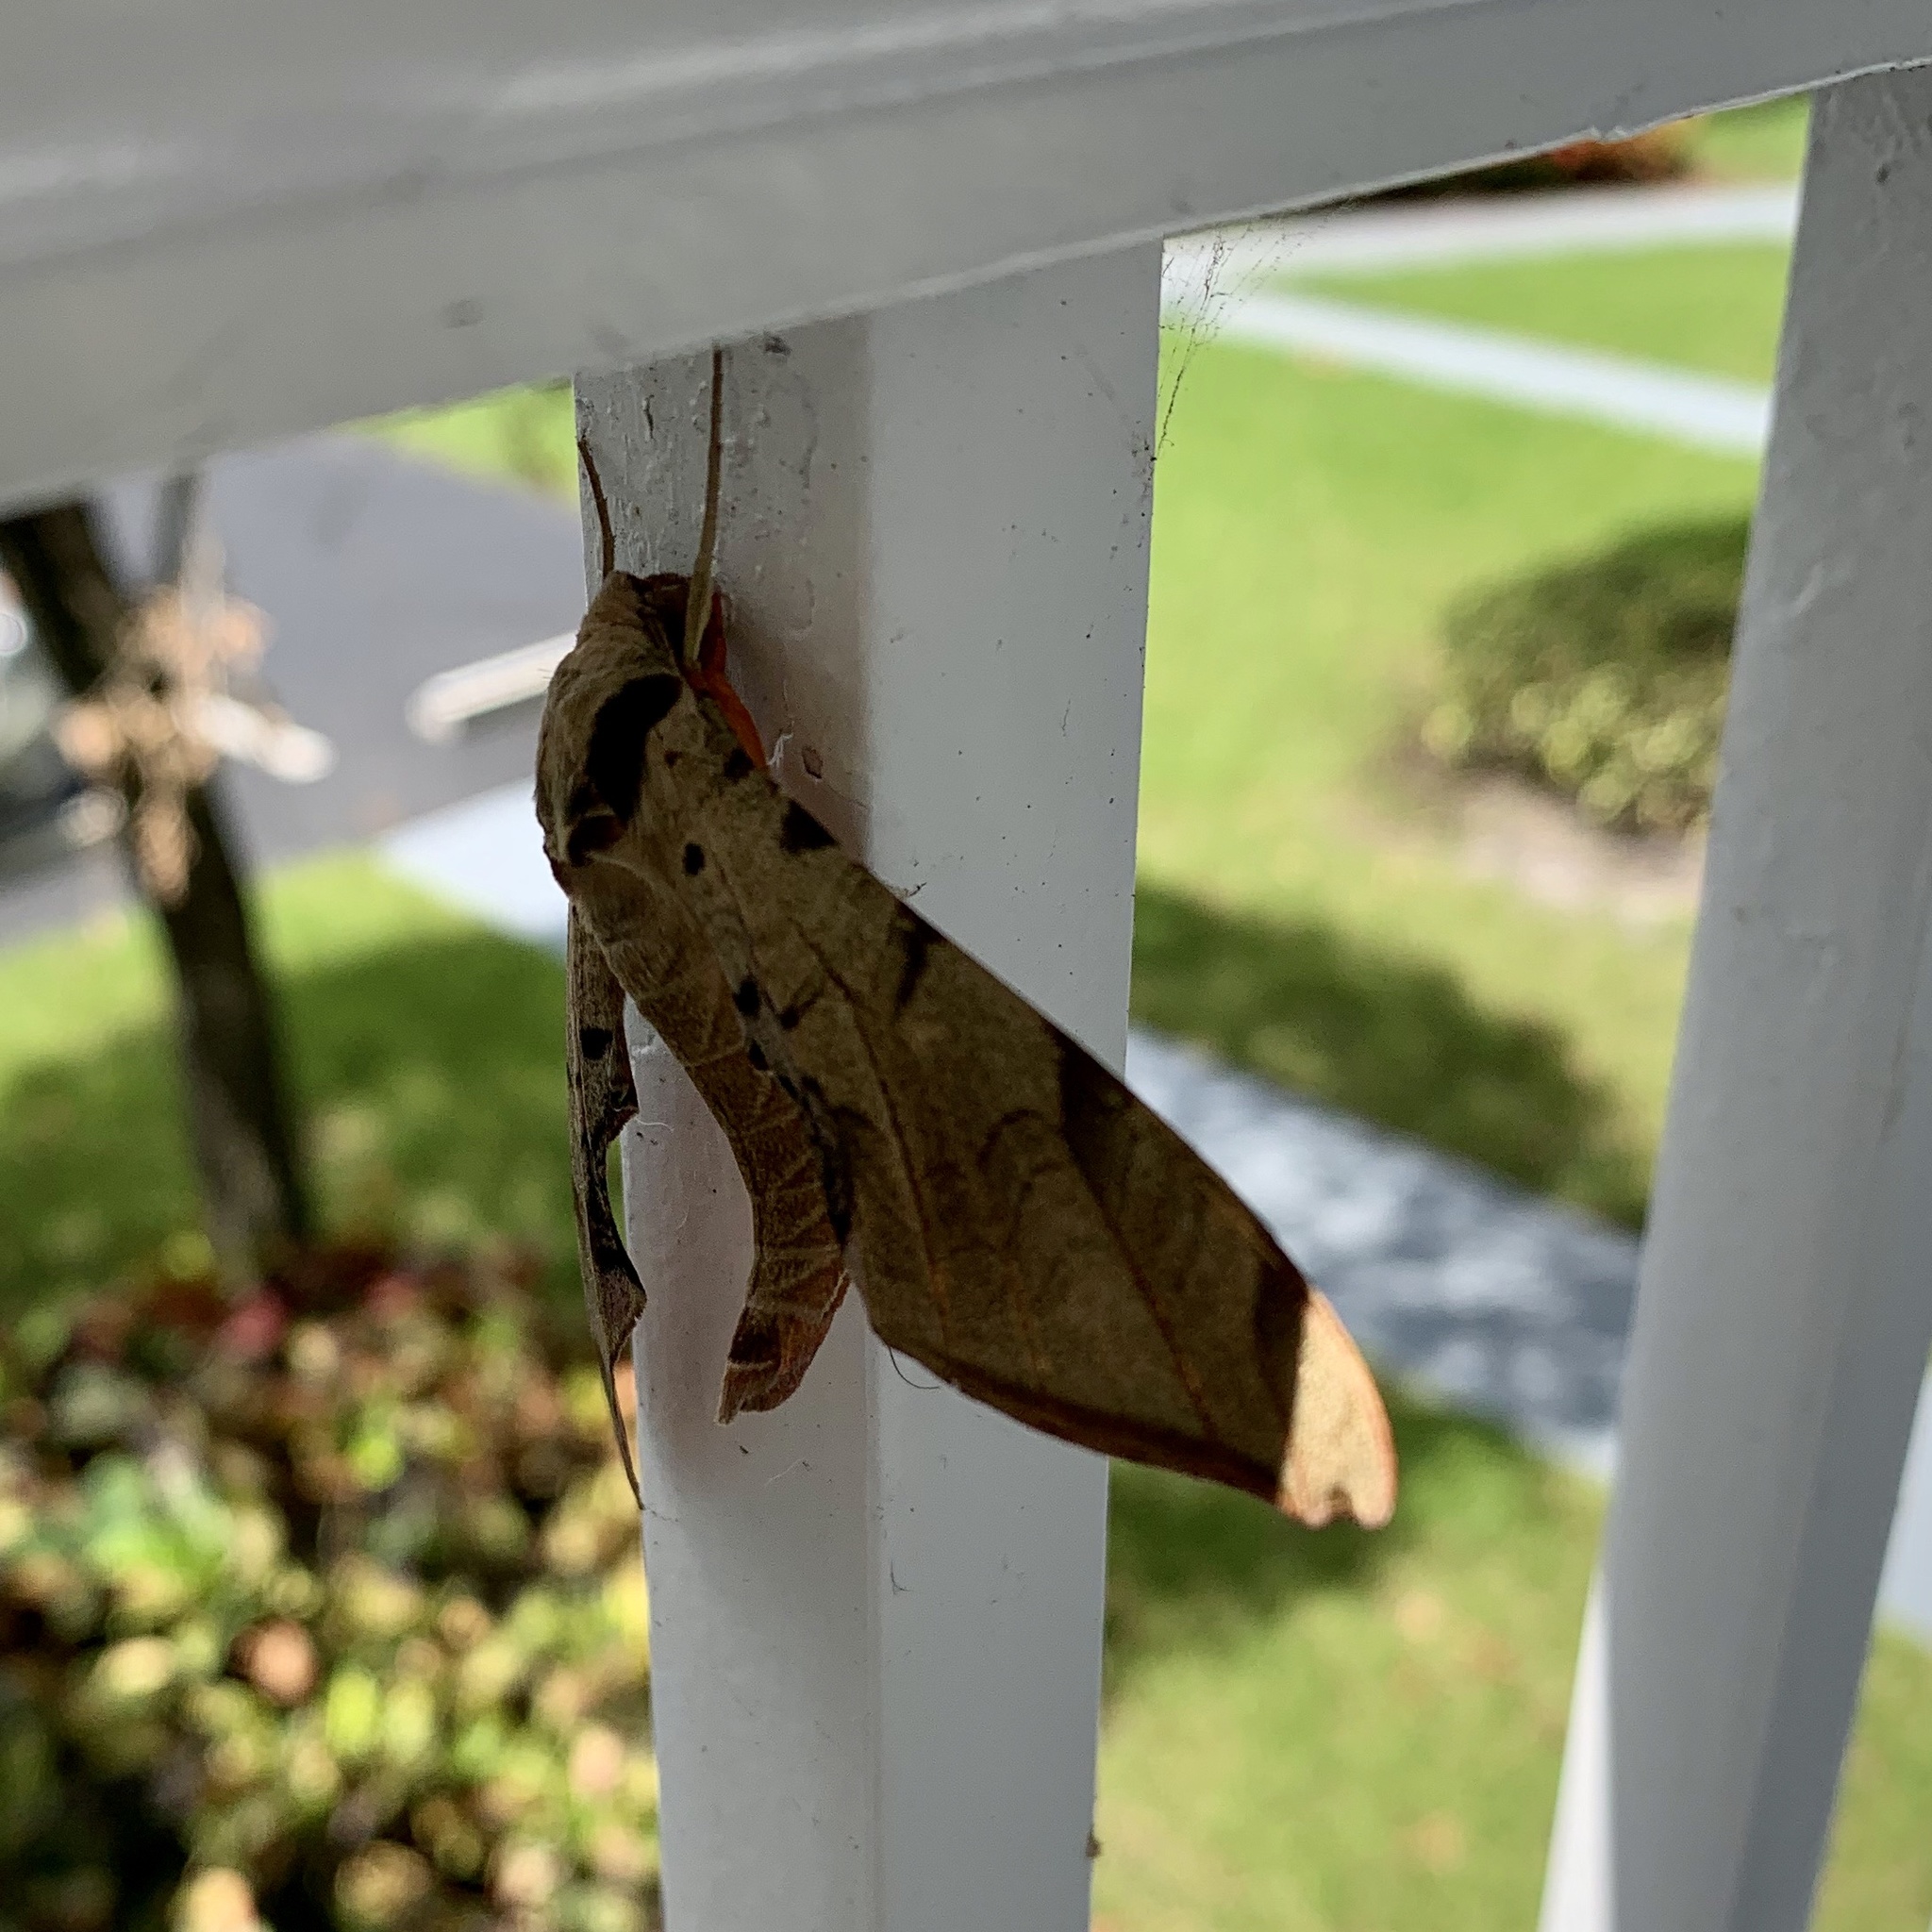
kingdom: Animalia
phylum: Arthropoda
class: Insecta
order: Lepidoptera
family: Sphingidae
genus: Protambulyx
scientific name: Protambulyx strigilis
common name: Streaked sphinx
